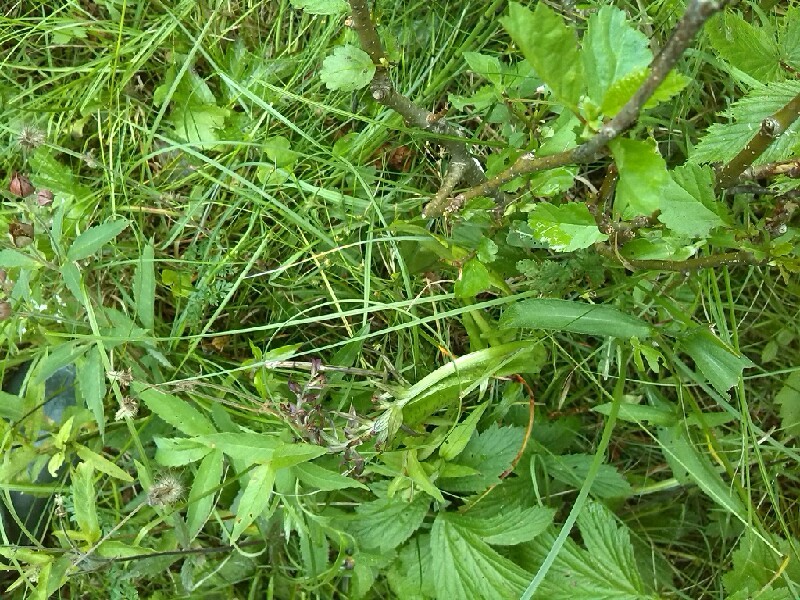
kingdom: Plantae
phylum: Tracheophyta
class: Liliopsida
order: Asparagales
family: Orchidaceae
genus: Dactylorhiza
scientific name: Dactylorhiza majalis
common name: Marsh orchid
